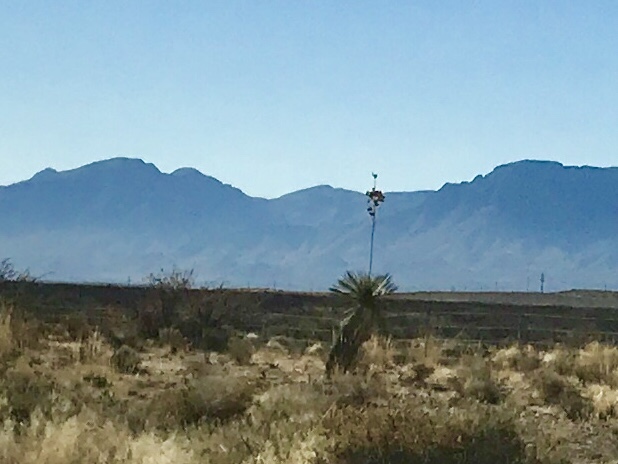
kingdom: Plantae
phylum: Tracheophyta
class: Liliopsida
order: Asparagales
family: Asparagaceae
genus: Yucca
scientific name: Yucca elata
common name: Palmella
